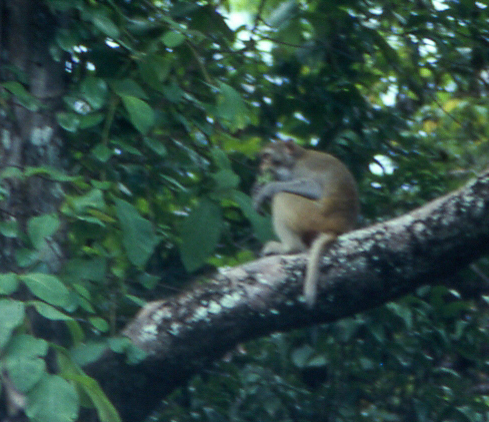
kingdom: Animalia
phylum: Chordata
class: Mammalia
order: Primates
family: Cercopithecidae
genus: Macaca
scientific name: Macaca fascicularis
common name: Crab-eating macaque
